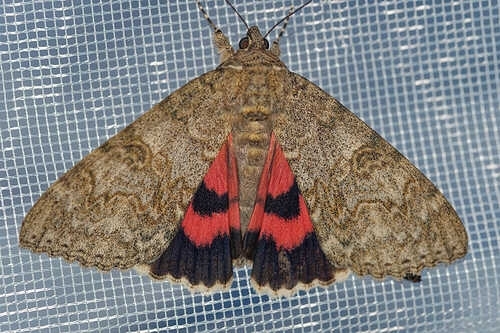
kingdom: Animalia
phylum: Arthropoda
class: Insecta
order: Lepidoptera
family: Erebidae
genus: Catocala
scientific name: Catocala nupta
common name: Red underwing
